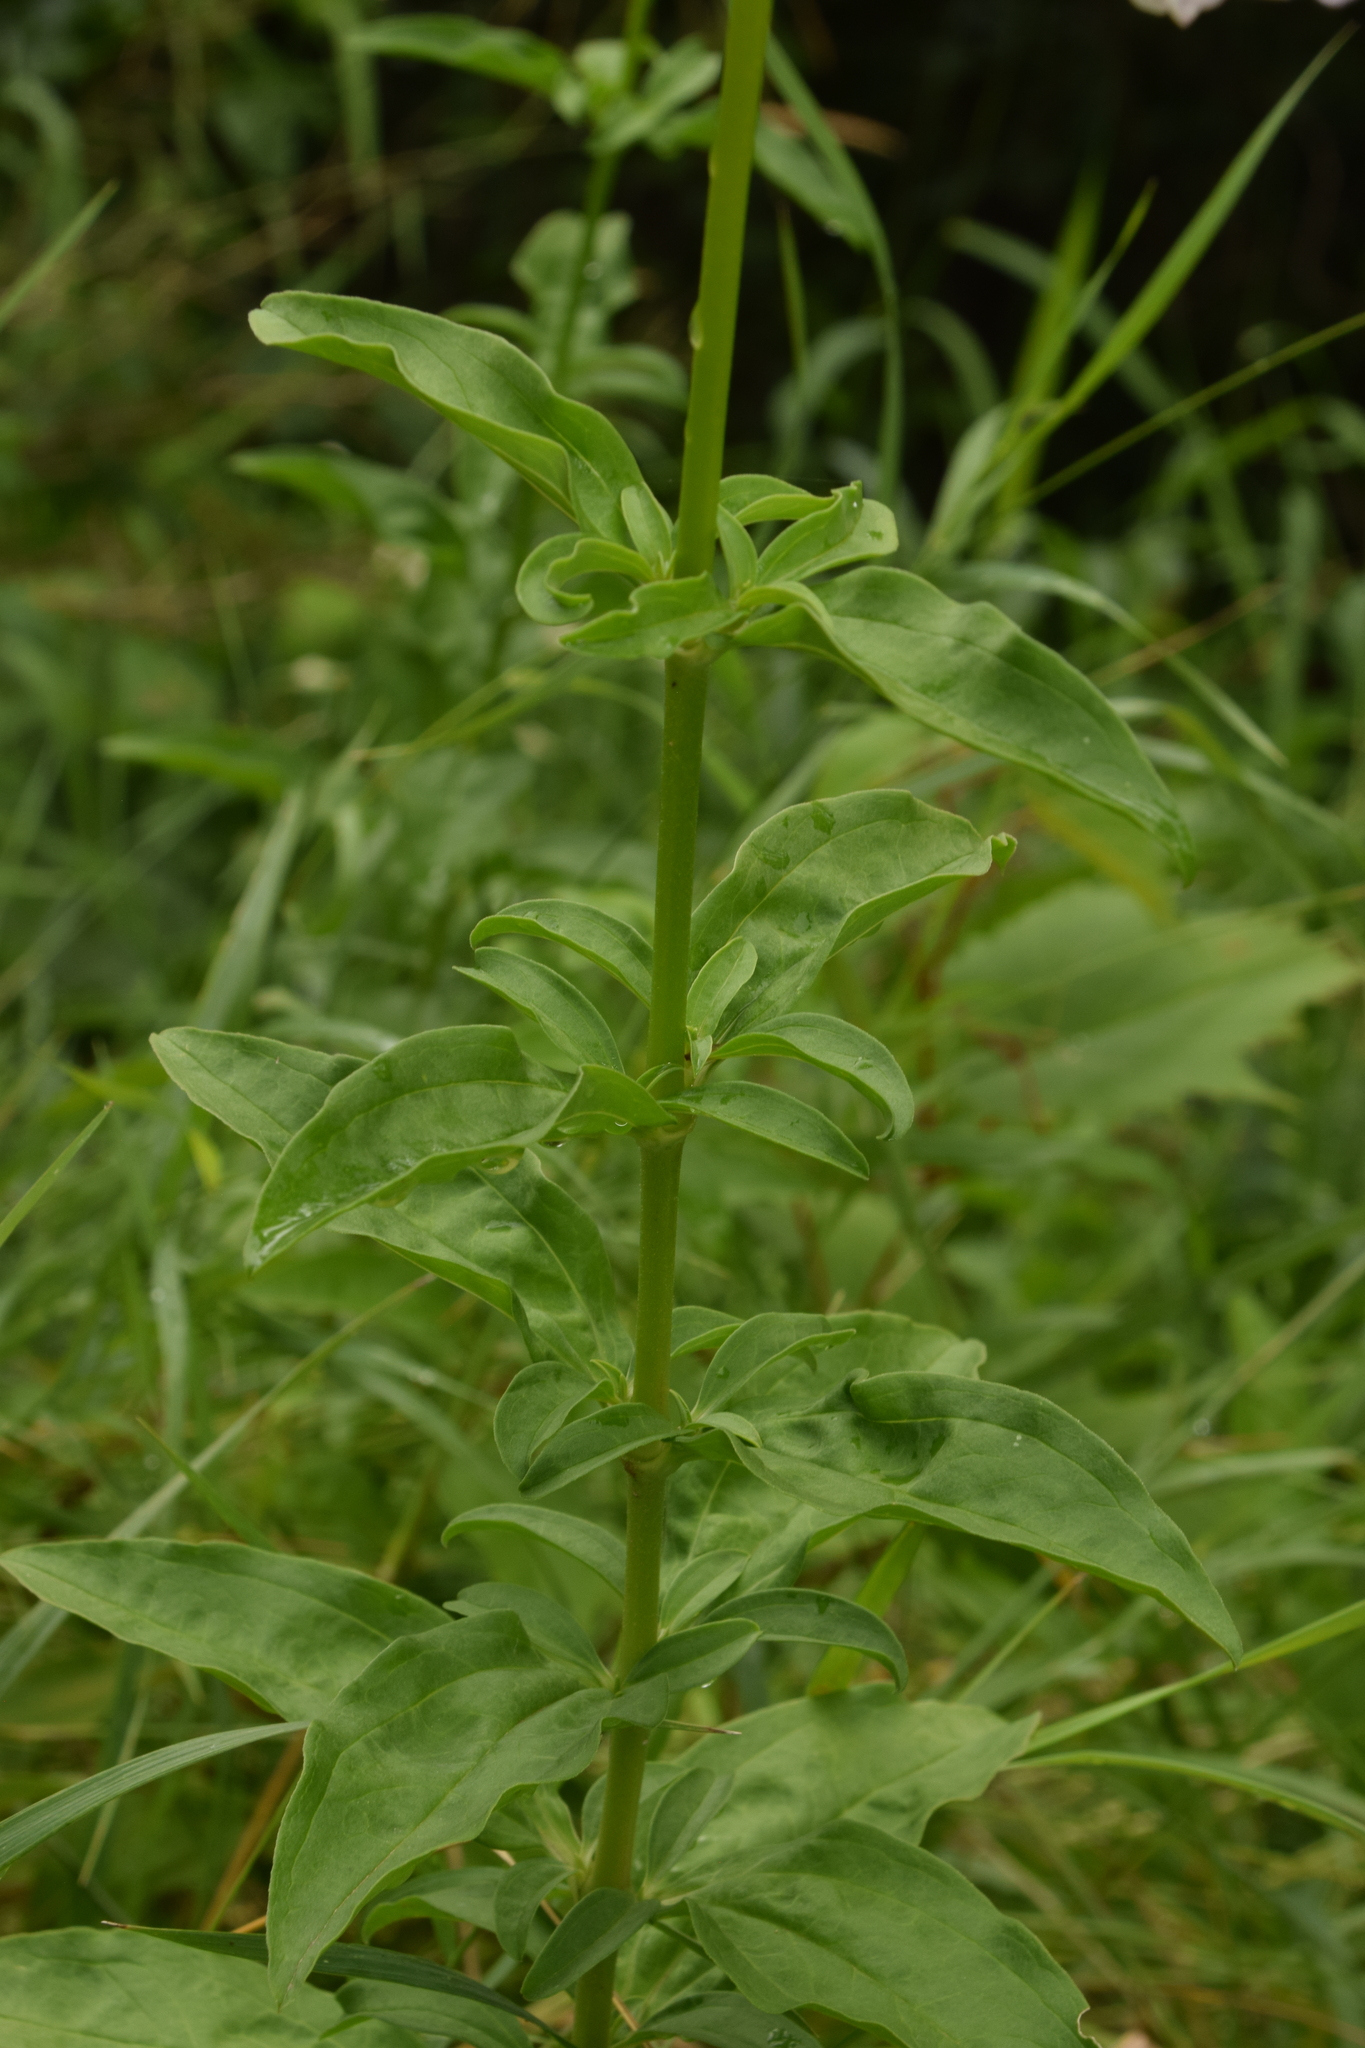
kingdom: Plantae
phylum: Tracheophyta
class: Magnoliopsida
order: Caryophyllales
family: Caryophyllaceae
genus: Saponaria
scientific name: Saponaria officinalis
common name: Soapwort
